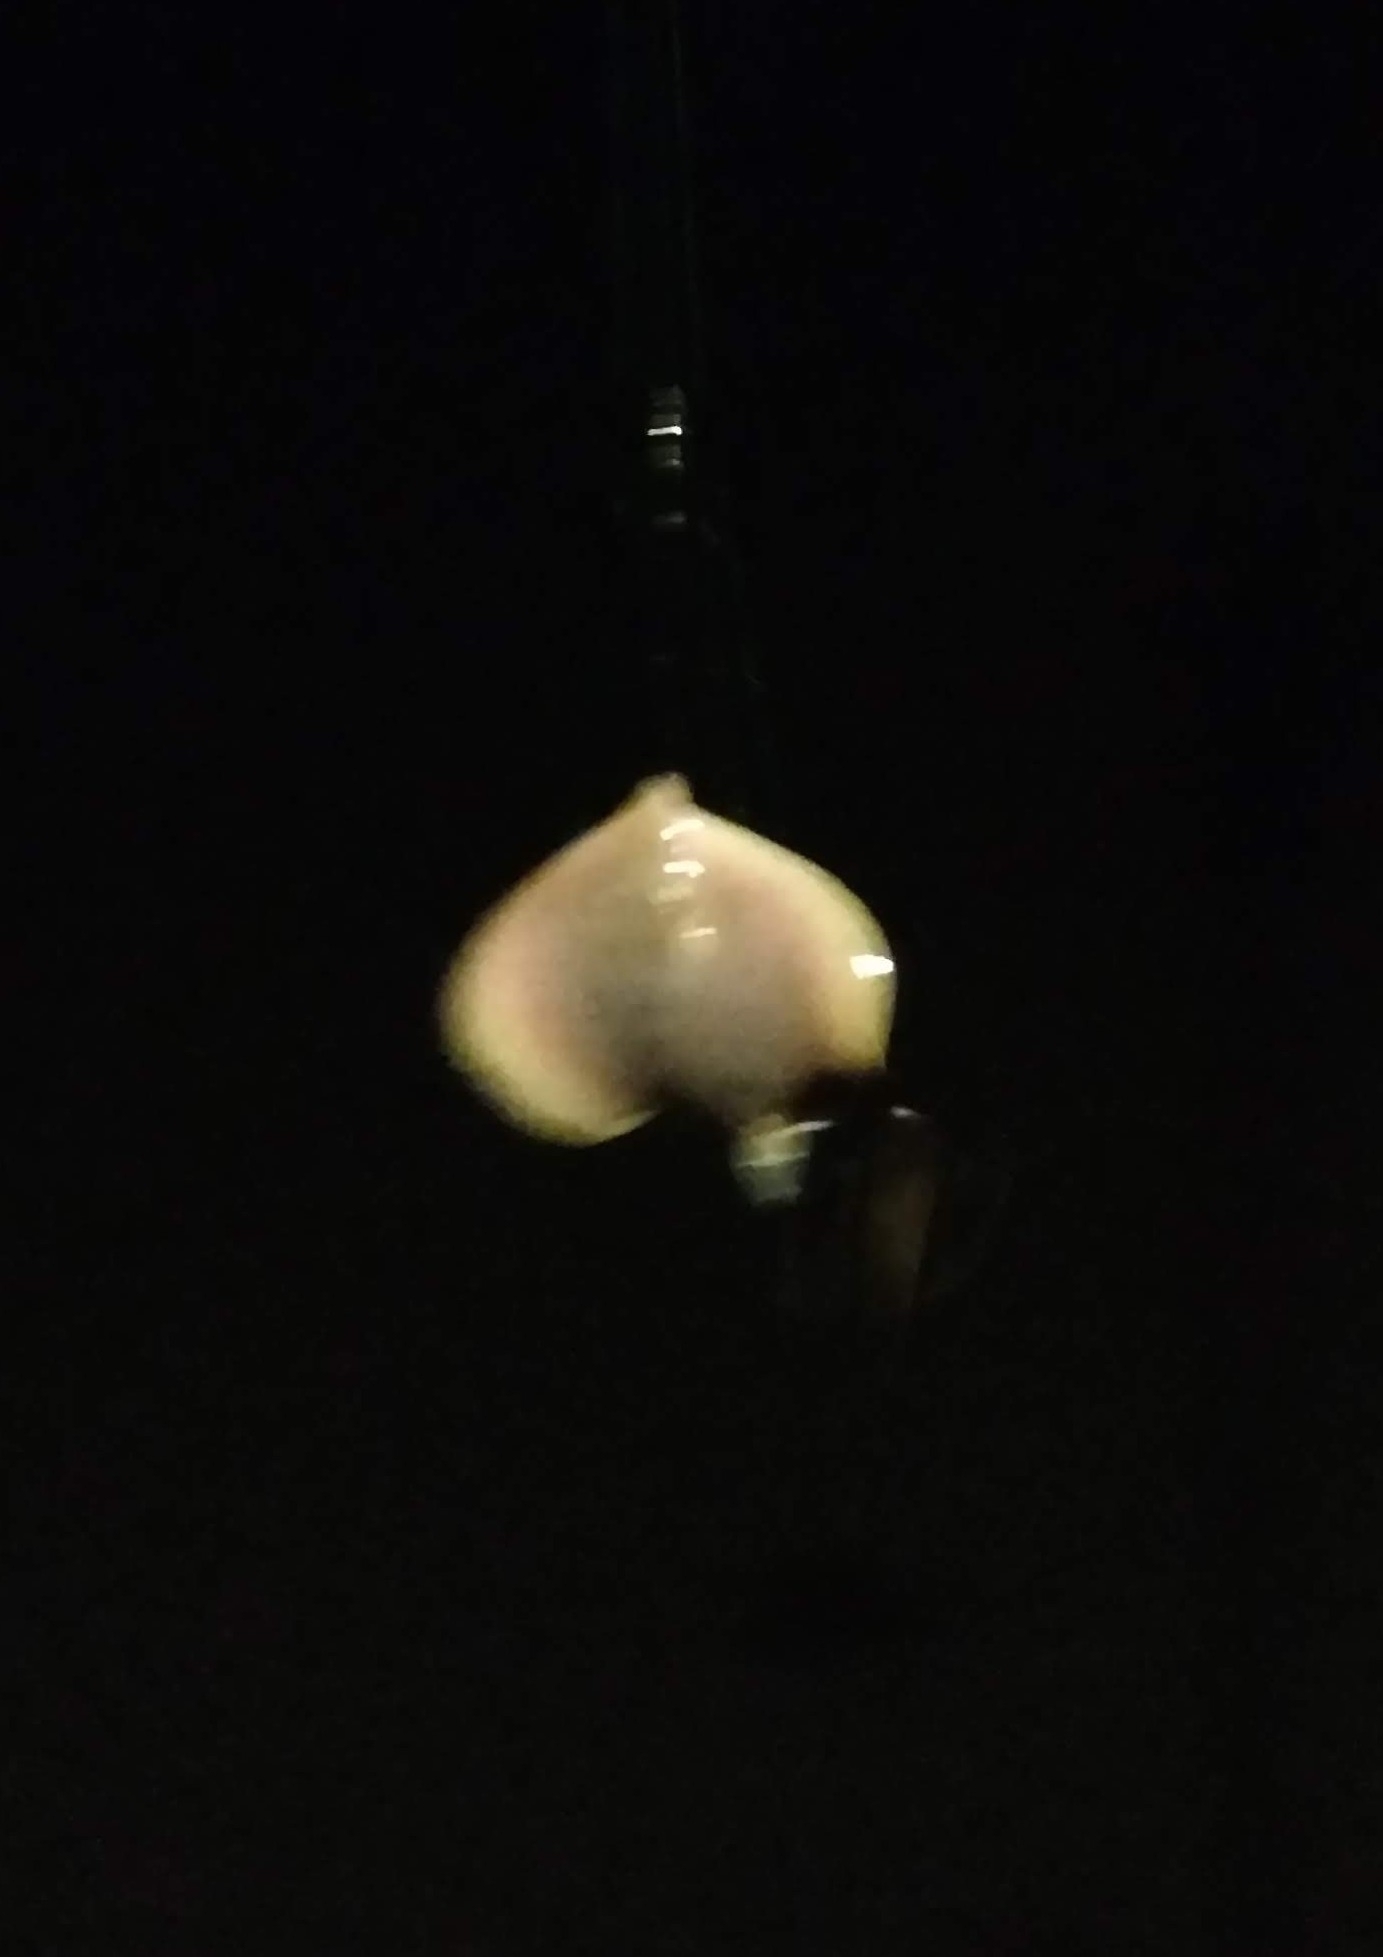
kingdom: Animalia
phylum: Chordata
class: Elasmobranchii
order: Myliobatiformes
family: Dasyatidae
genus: Hypanus
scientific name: Hypanus sabinus
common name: Atlantic stingray
